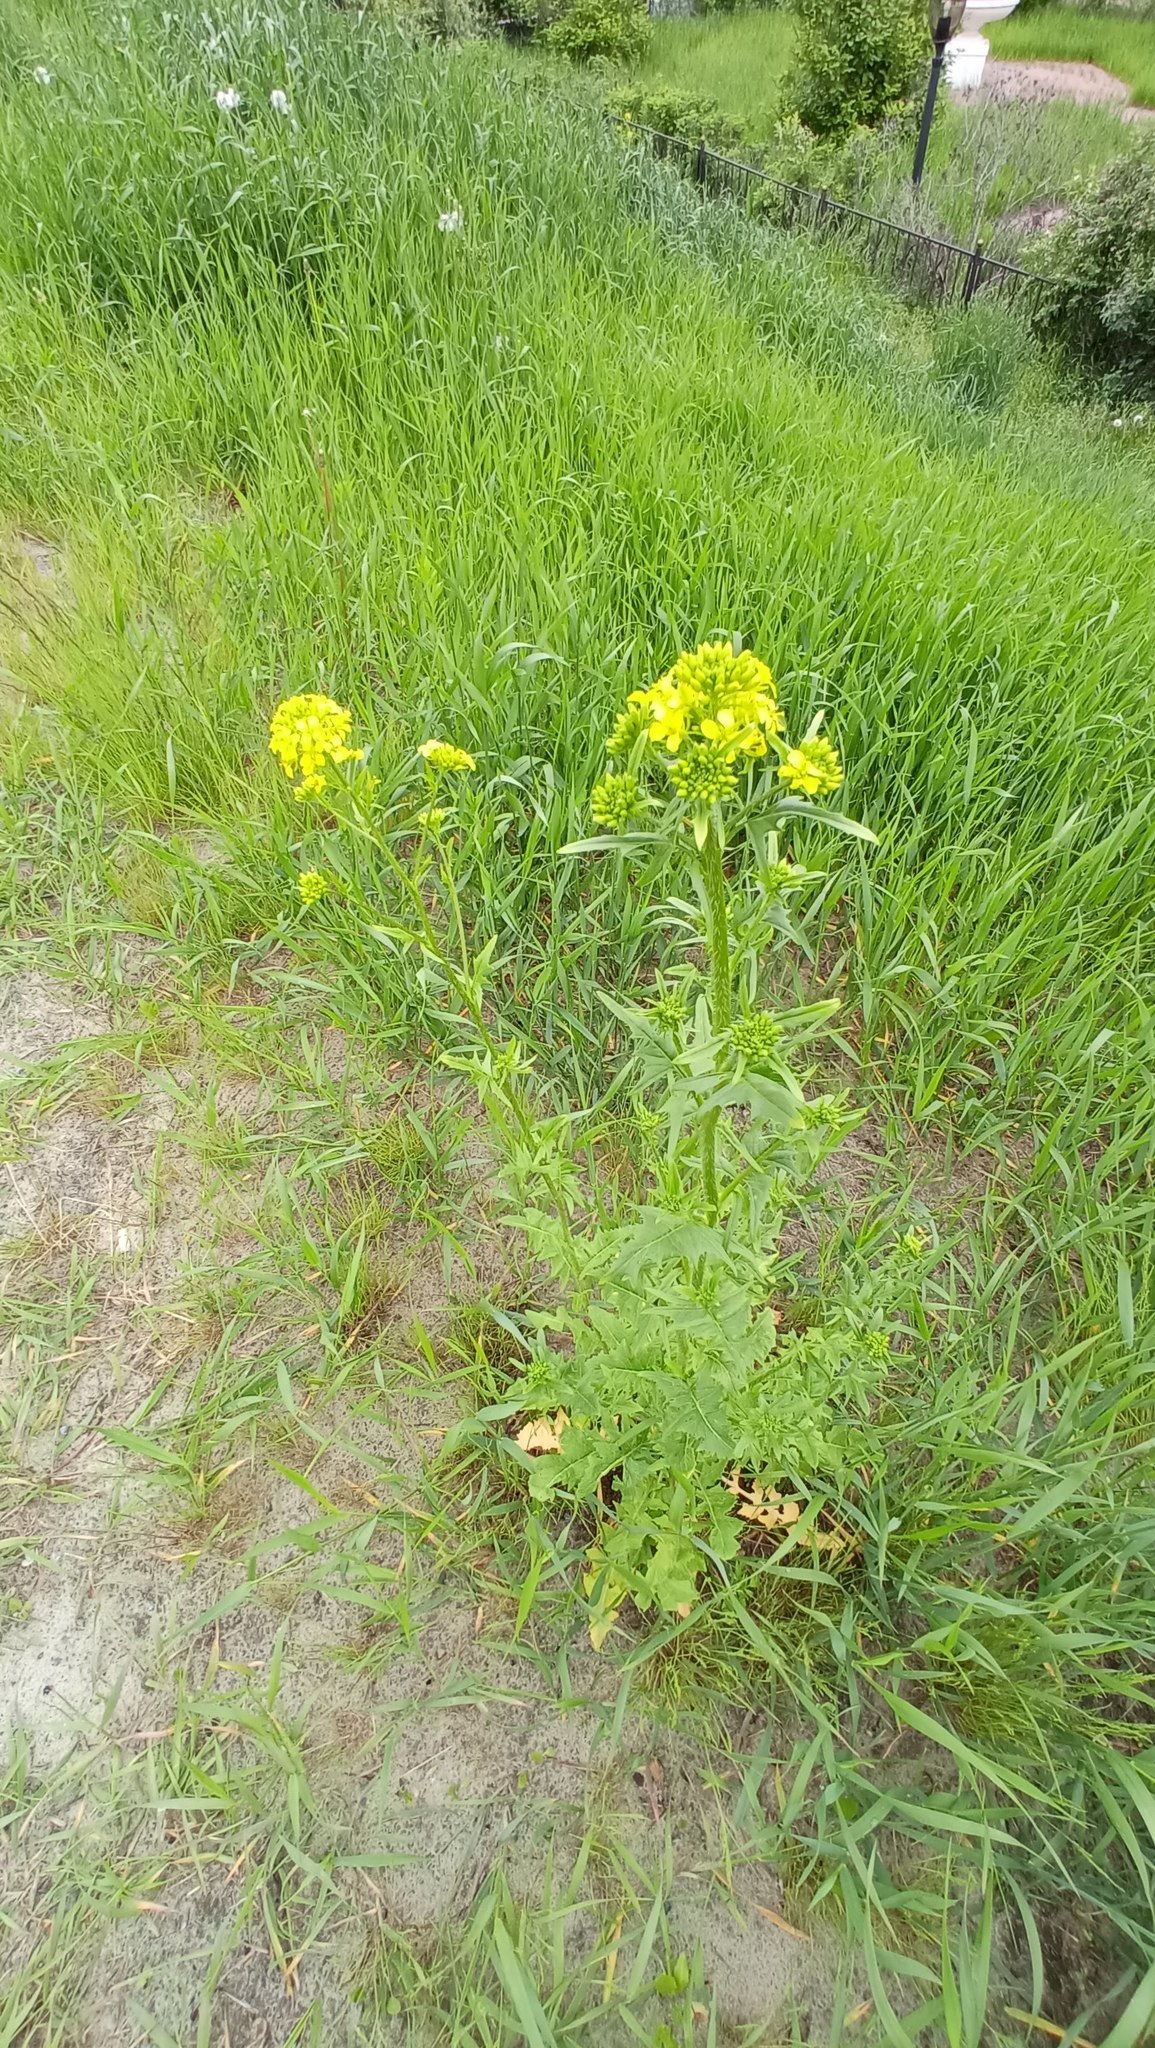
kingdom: Plantae
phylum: Tracheophyta
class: Magnoliopsida
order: Brassicales
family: Brassicaceae
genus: Sisymbrium
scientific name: Sisymbrium loeselii
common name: False london-rocket
